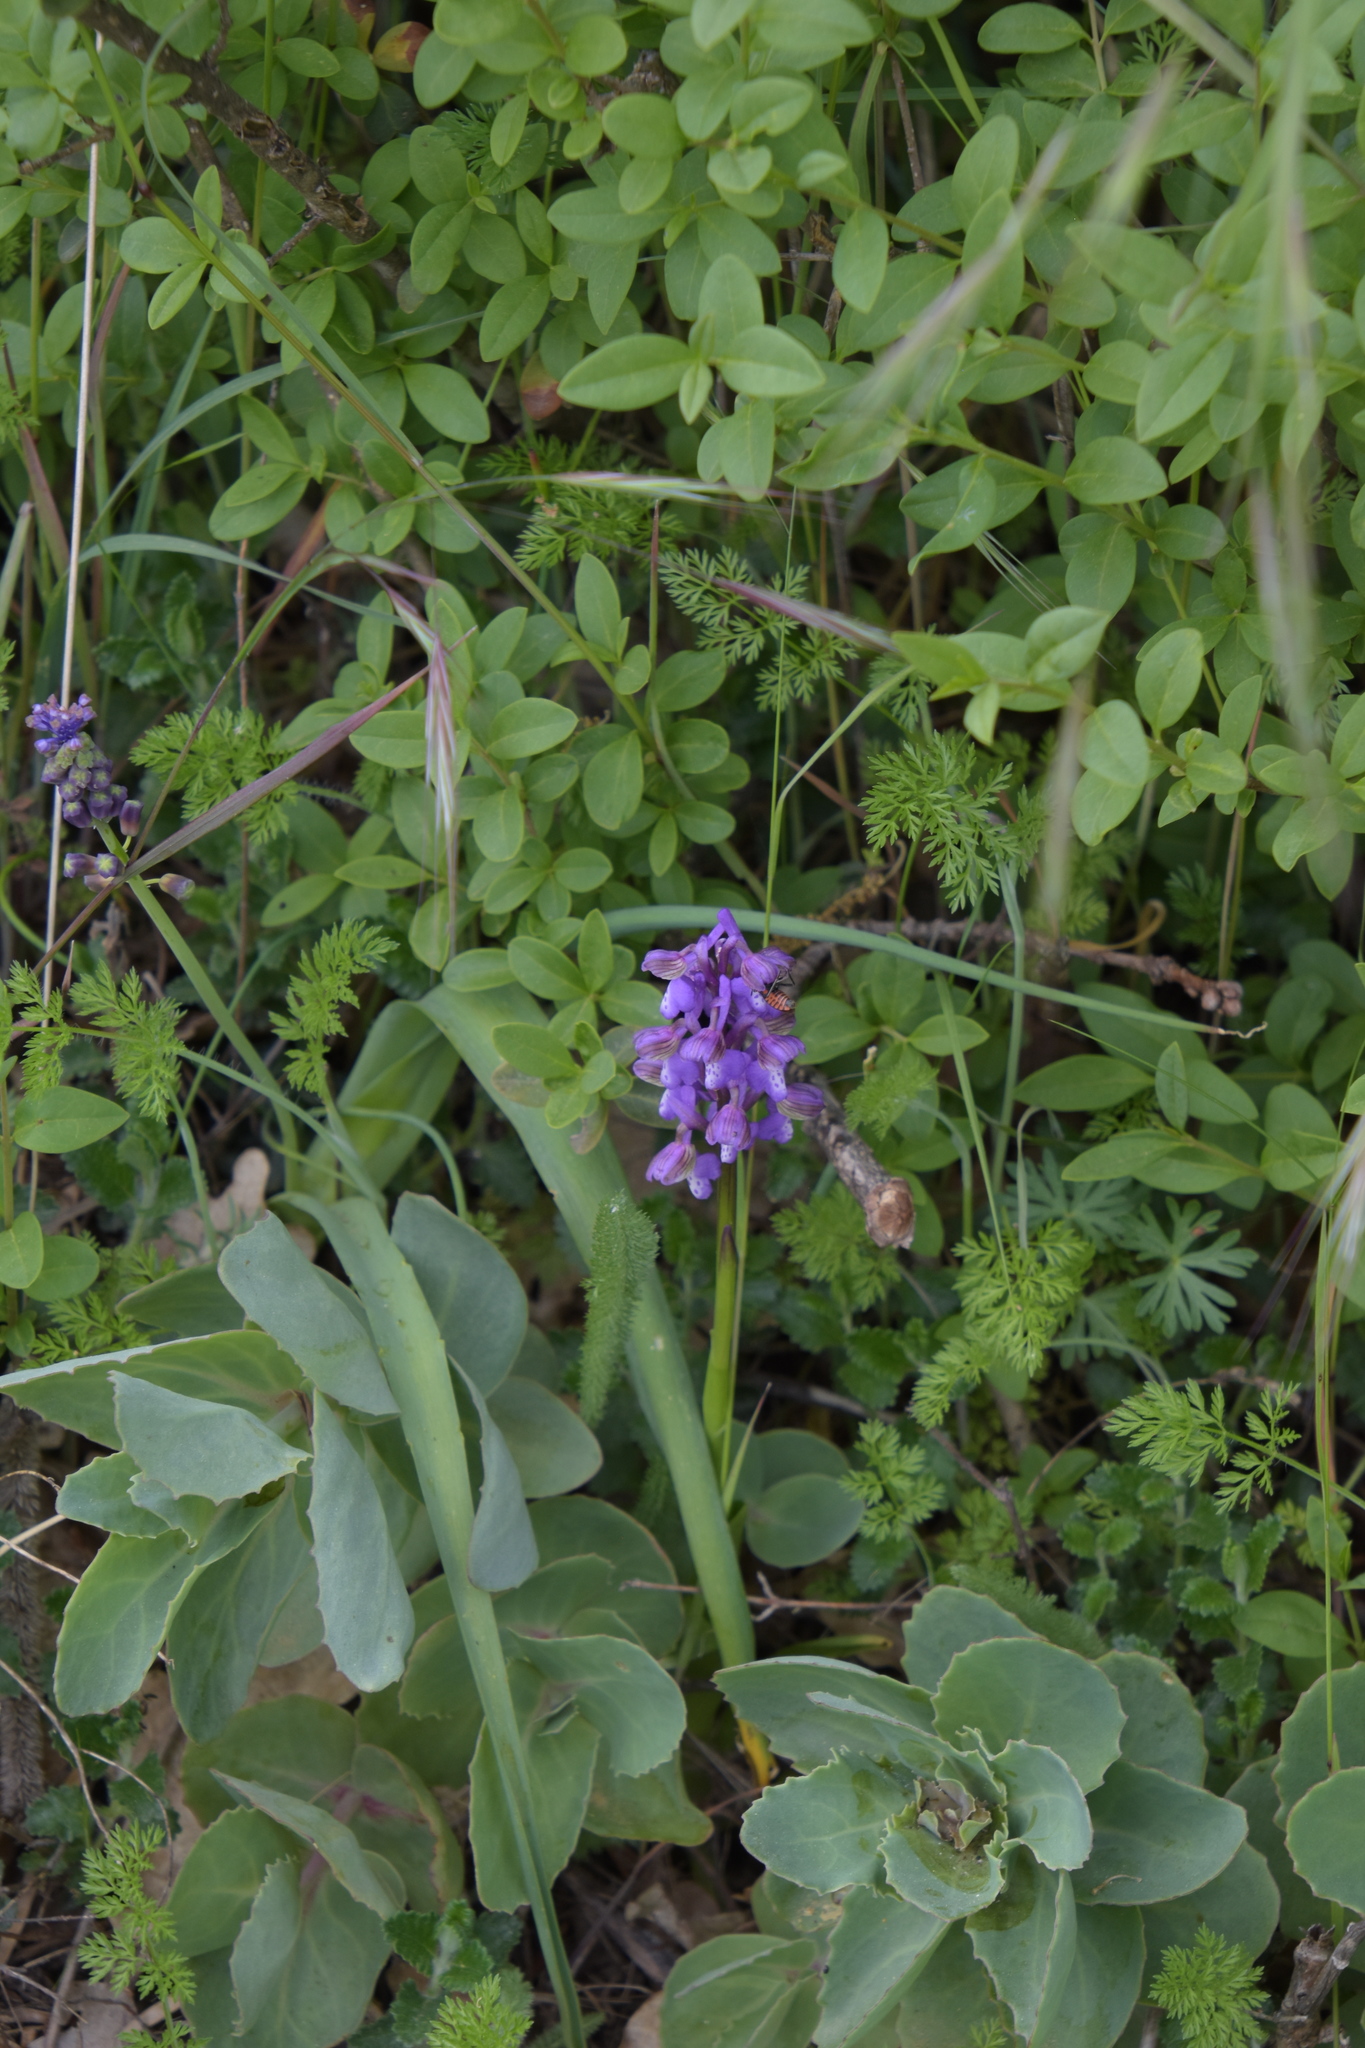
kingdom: Plantae
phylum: Tracheophyta
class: Liliopsida
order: Asparagales
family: Orchidaceae
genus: Anacamptis
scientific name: Anacamptis morio
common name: Green-winged orchid
